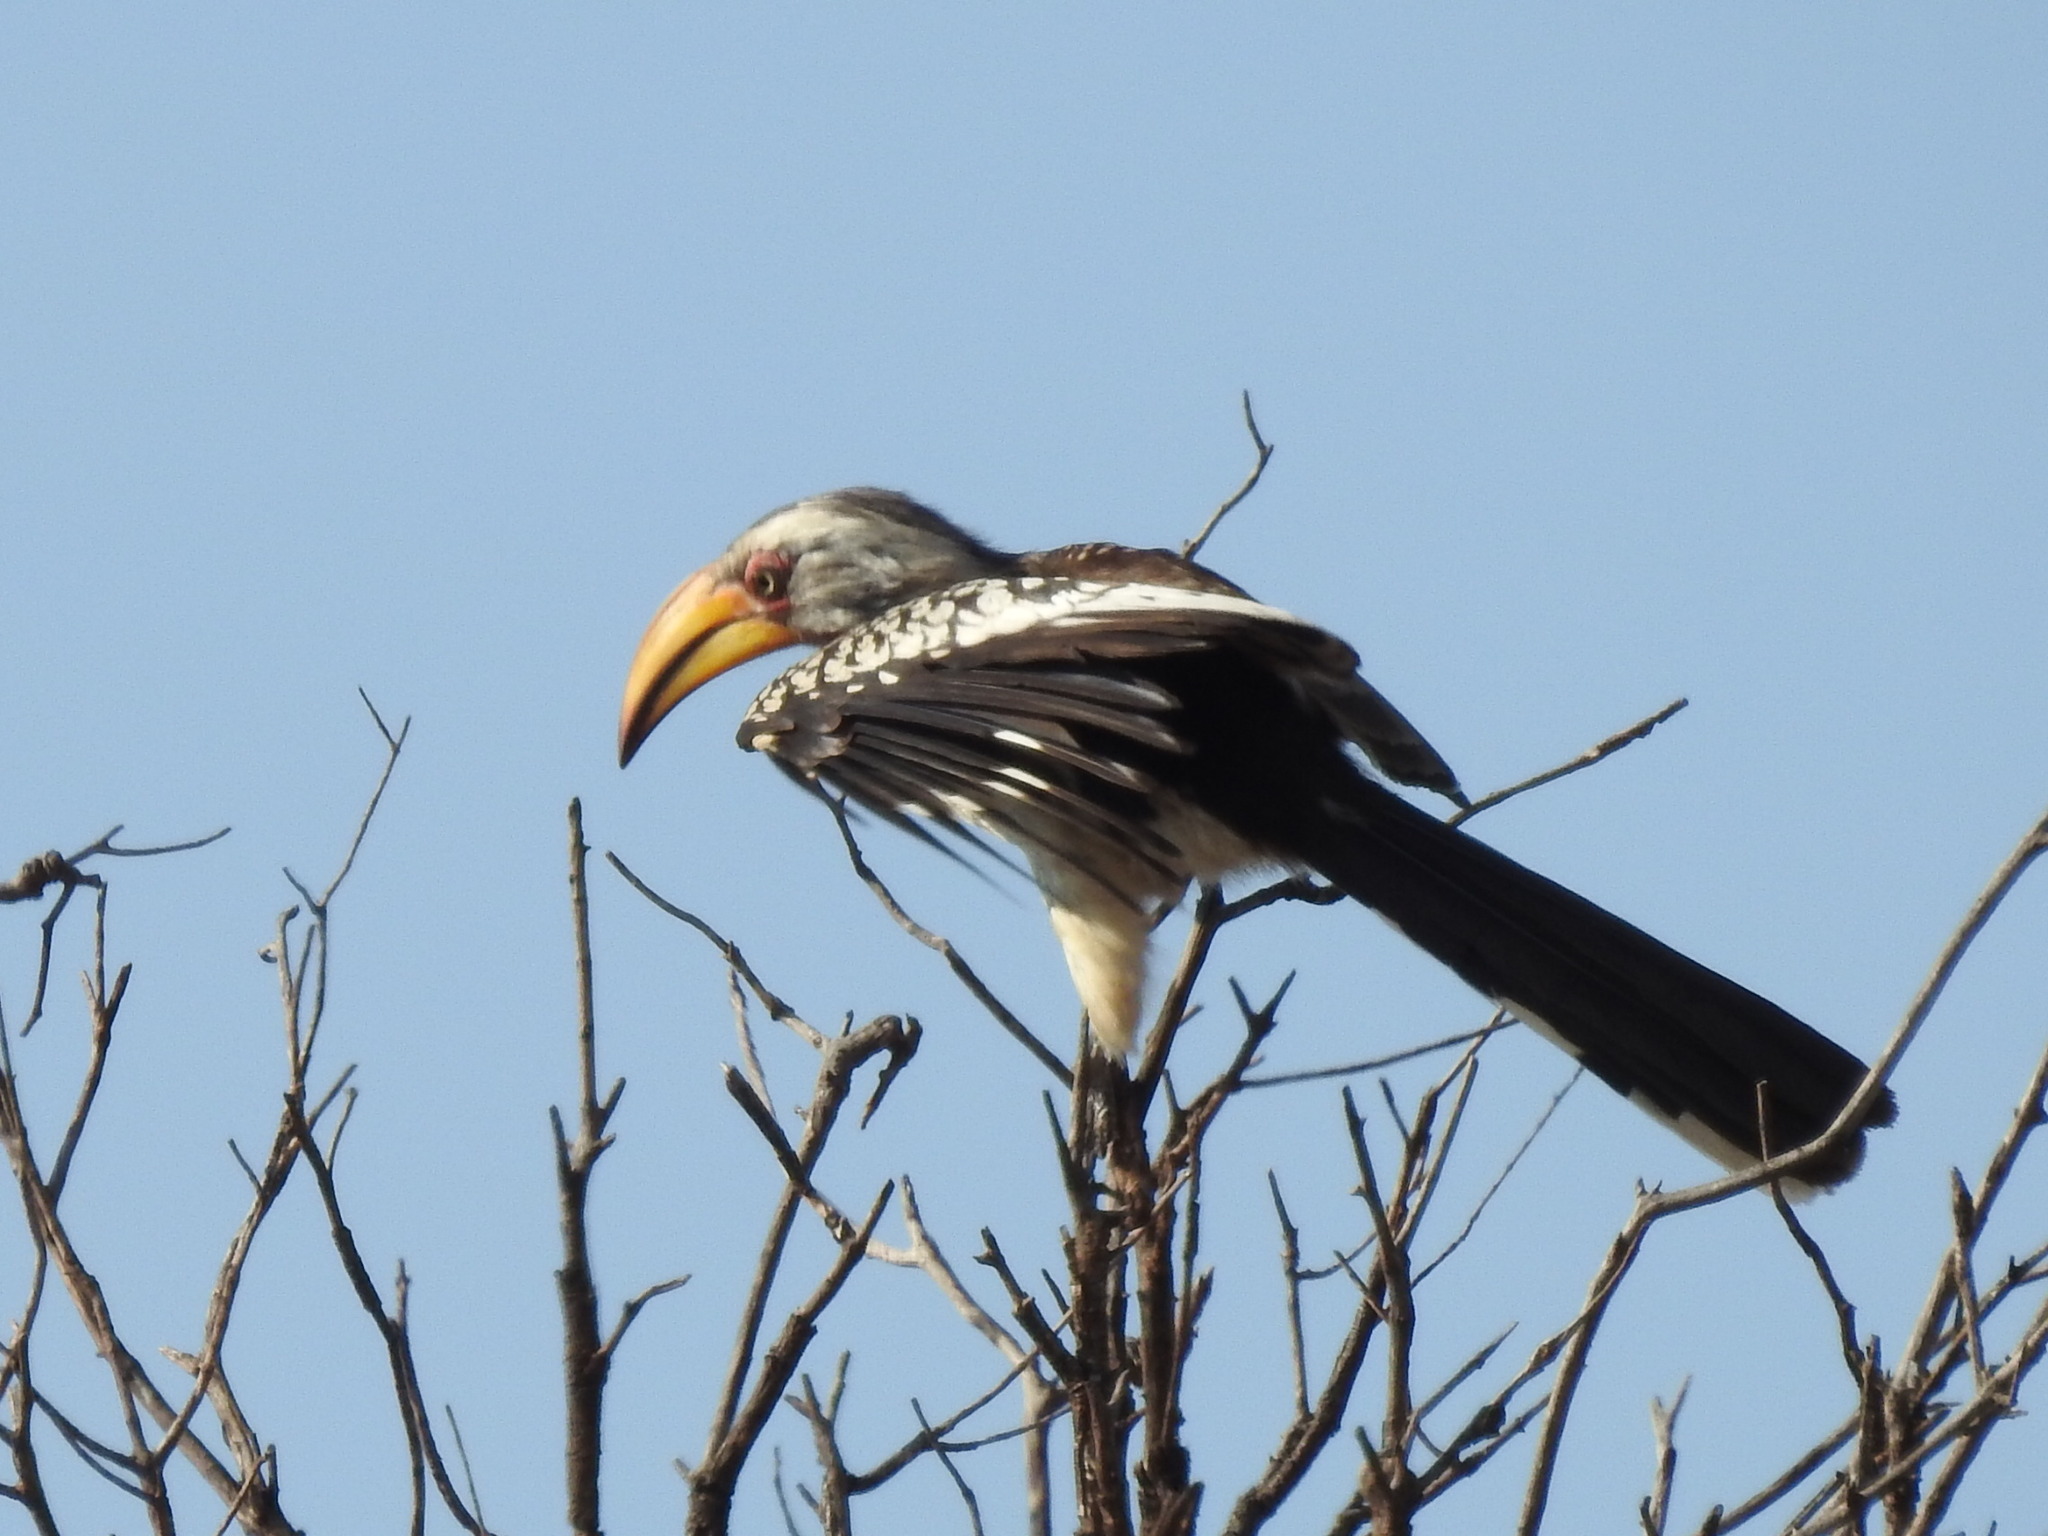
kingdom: Animalia
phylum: Chordata
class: Aves
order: Bucerotiformes
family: Bucerotidae
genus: Tockus
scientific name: Tockus leucomelas
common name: Southern yellow-billed hornbill
